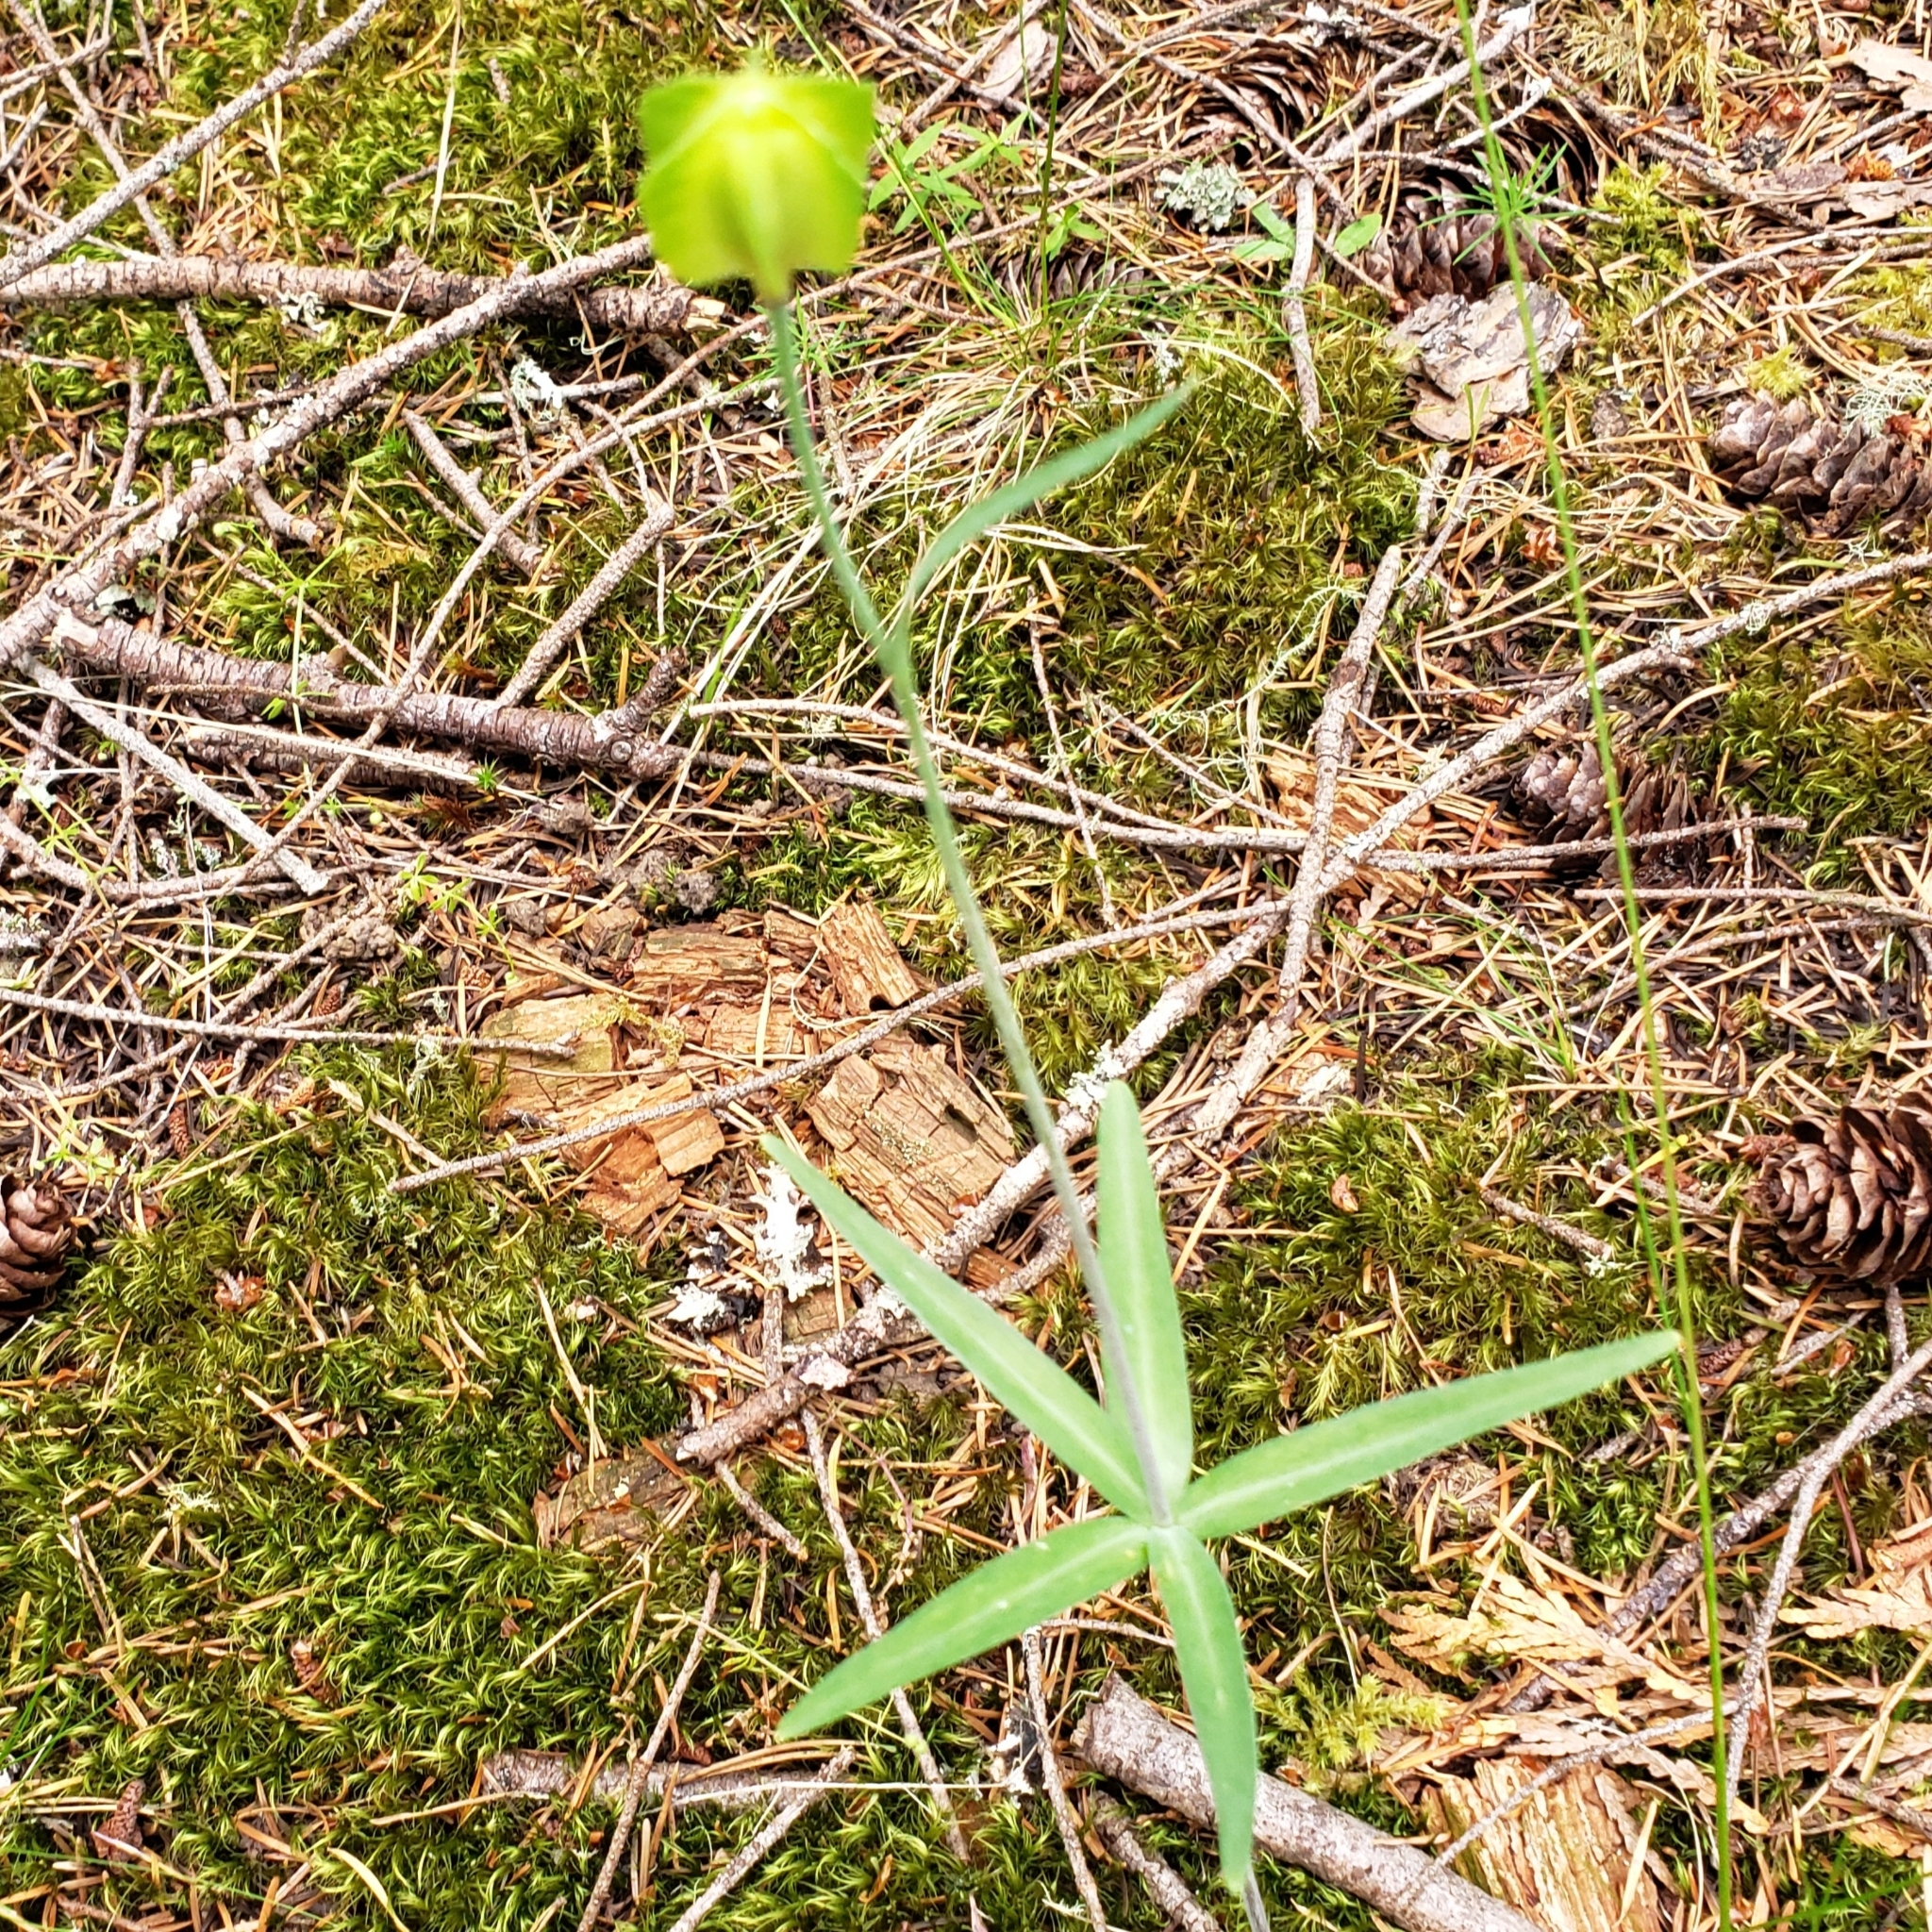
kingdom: Plantae
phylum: Tracheophyta
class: Liliopsida
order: Liliales
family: Liliaceae
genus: Fritillaria
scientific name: Fritillaria affinis
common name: Ojai fritillary
